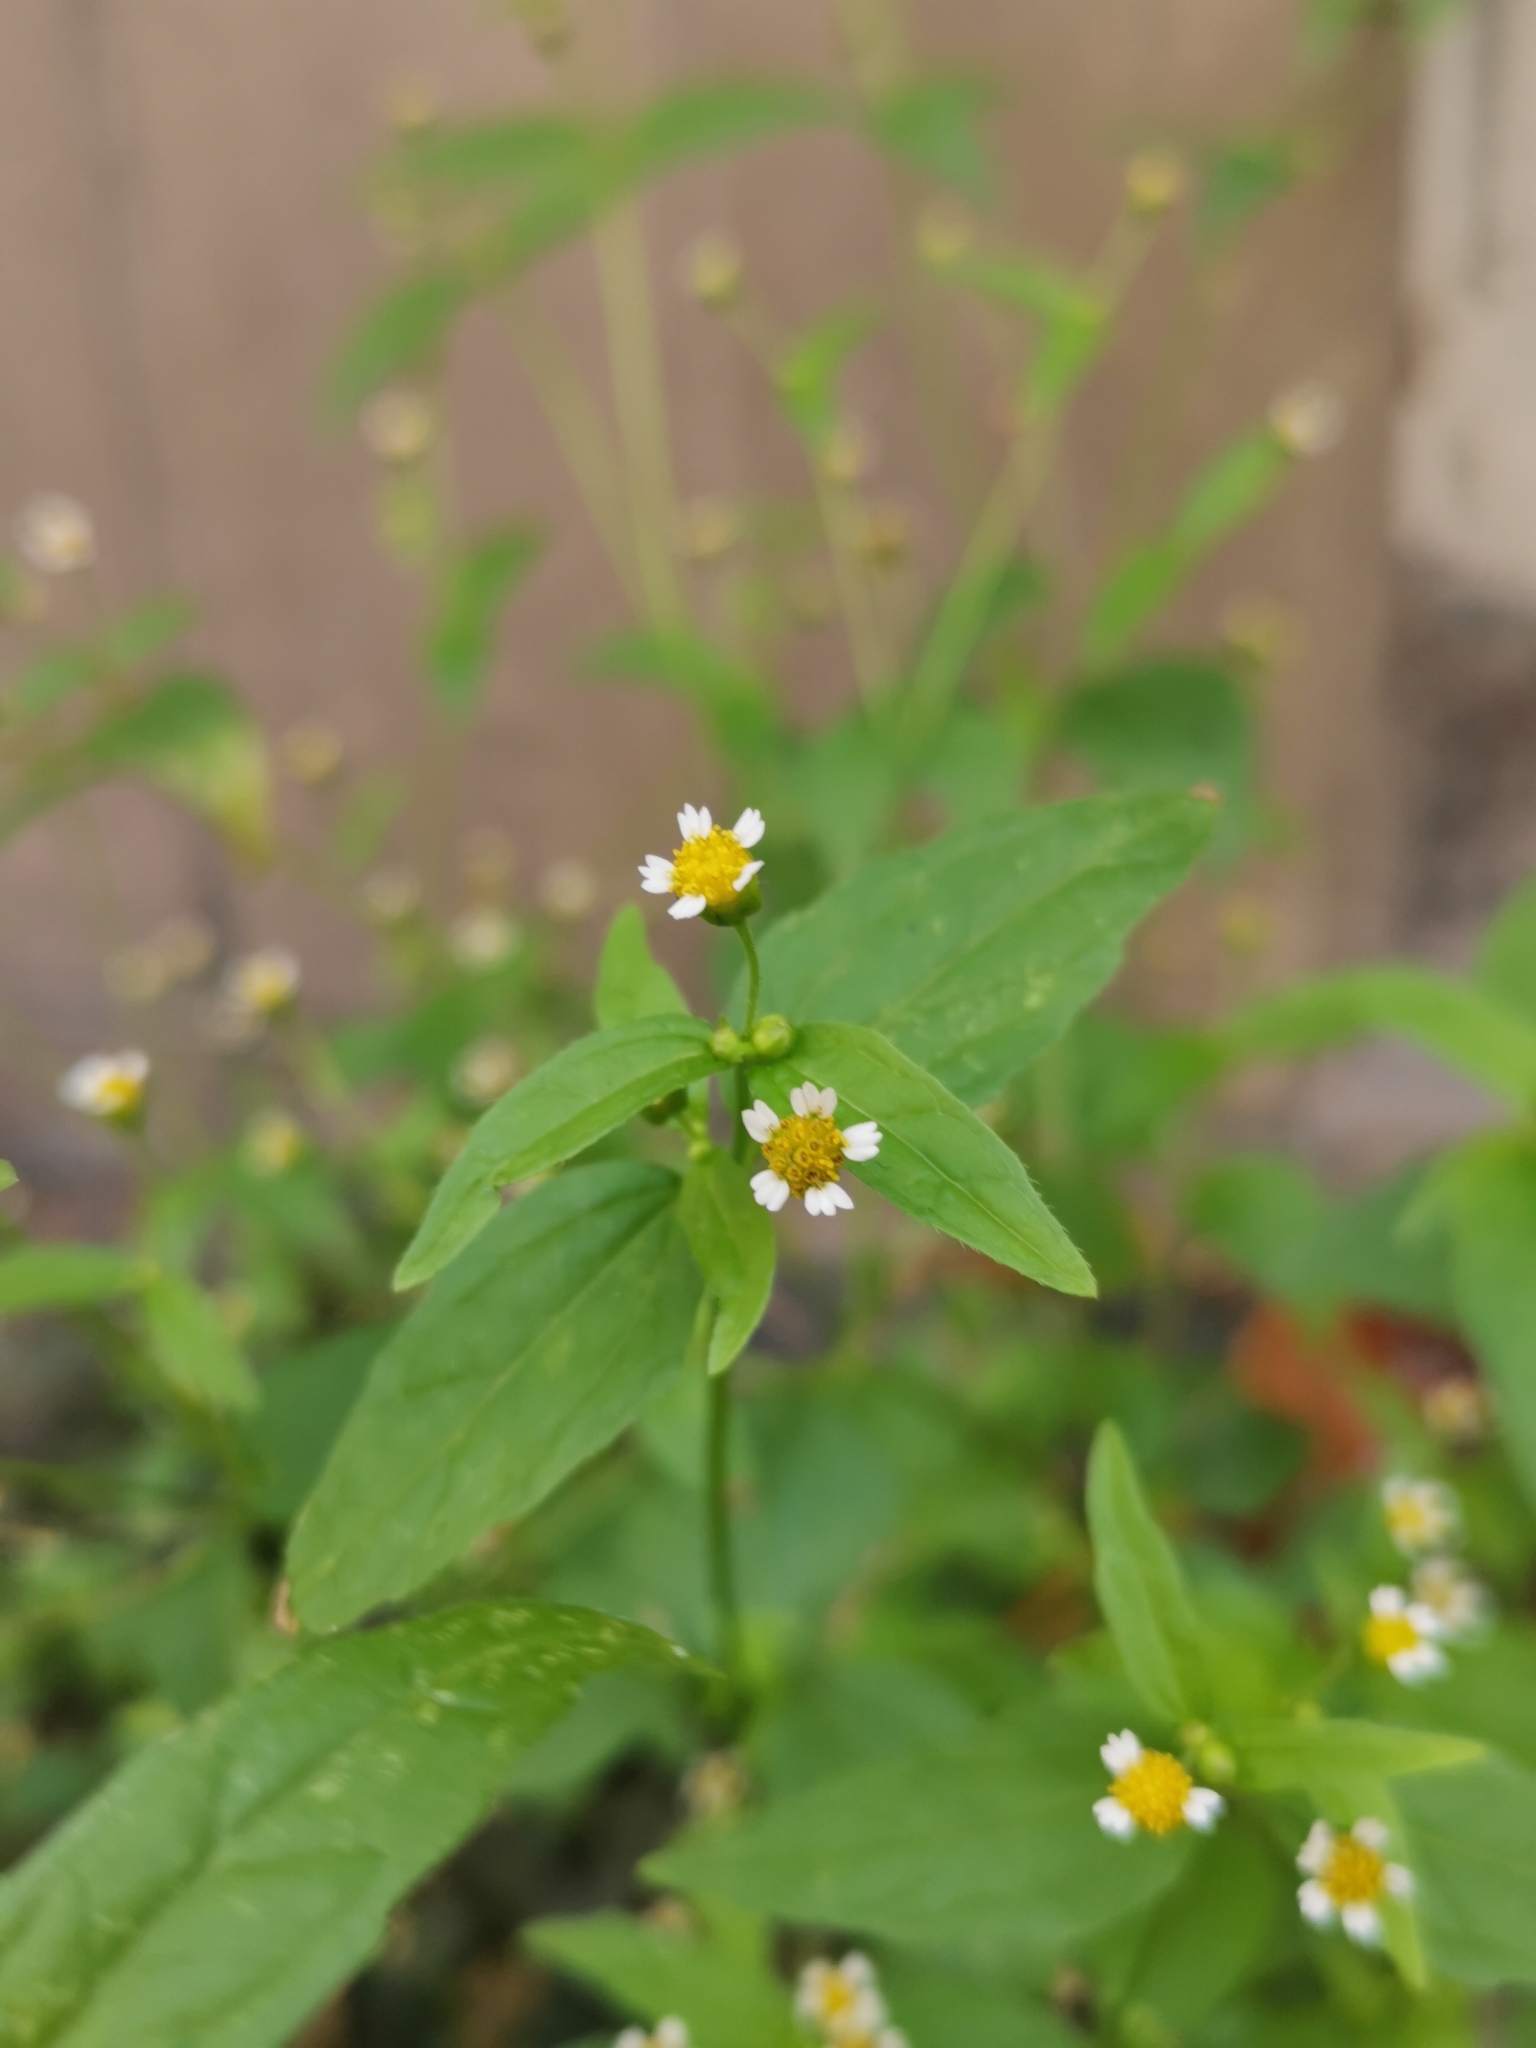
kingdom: Plantae
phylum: Tracheophyta
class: Magnoliopsida
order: Asterales
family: Asteraceae
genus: Galinsoga
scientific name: Galinsoga parviflora
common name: Gallant soldier
